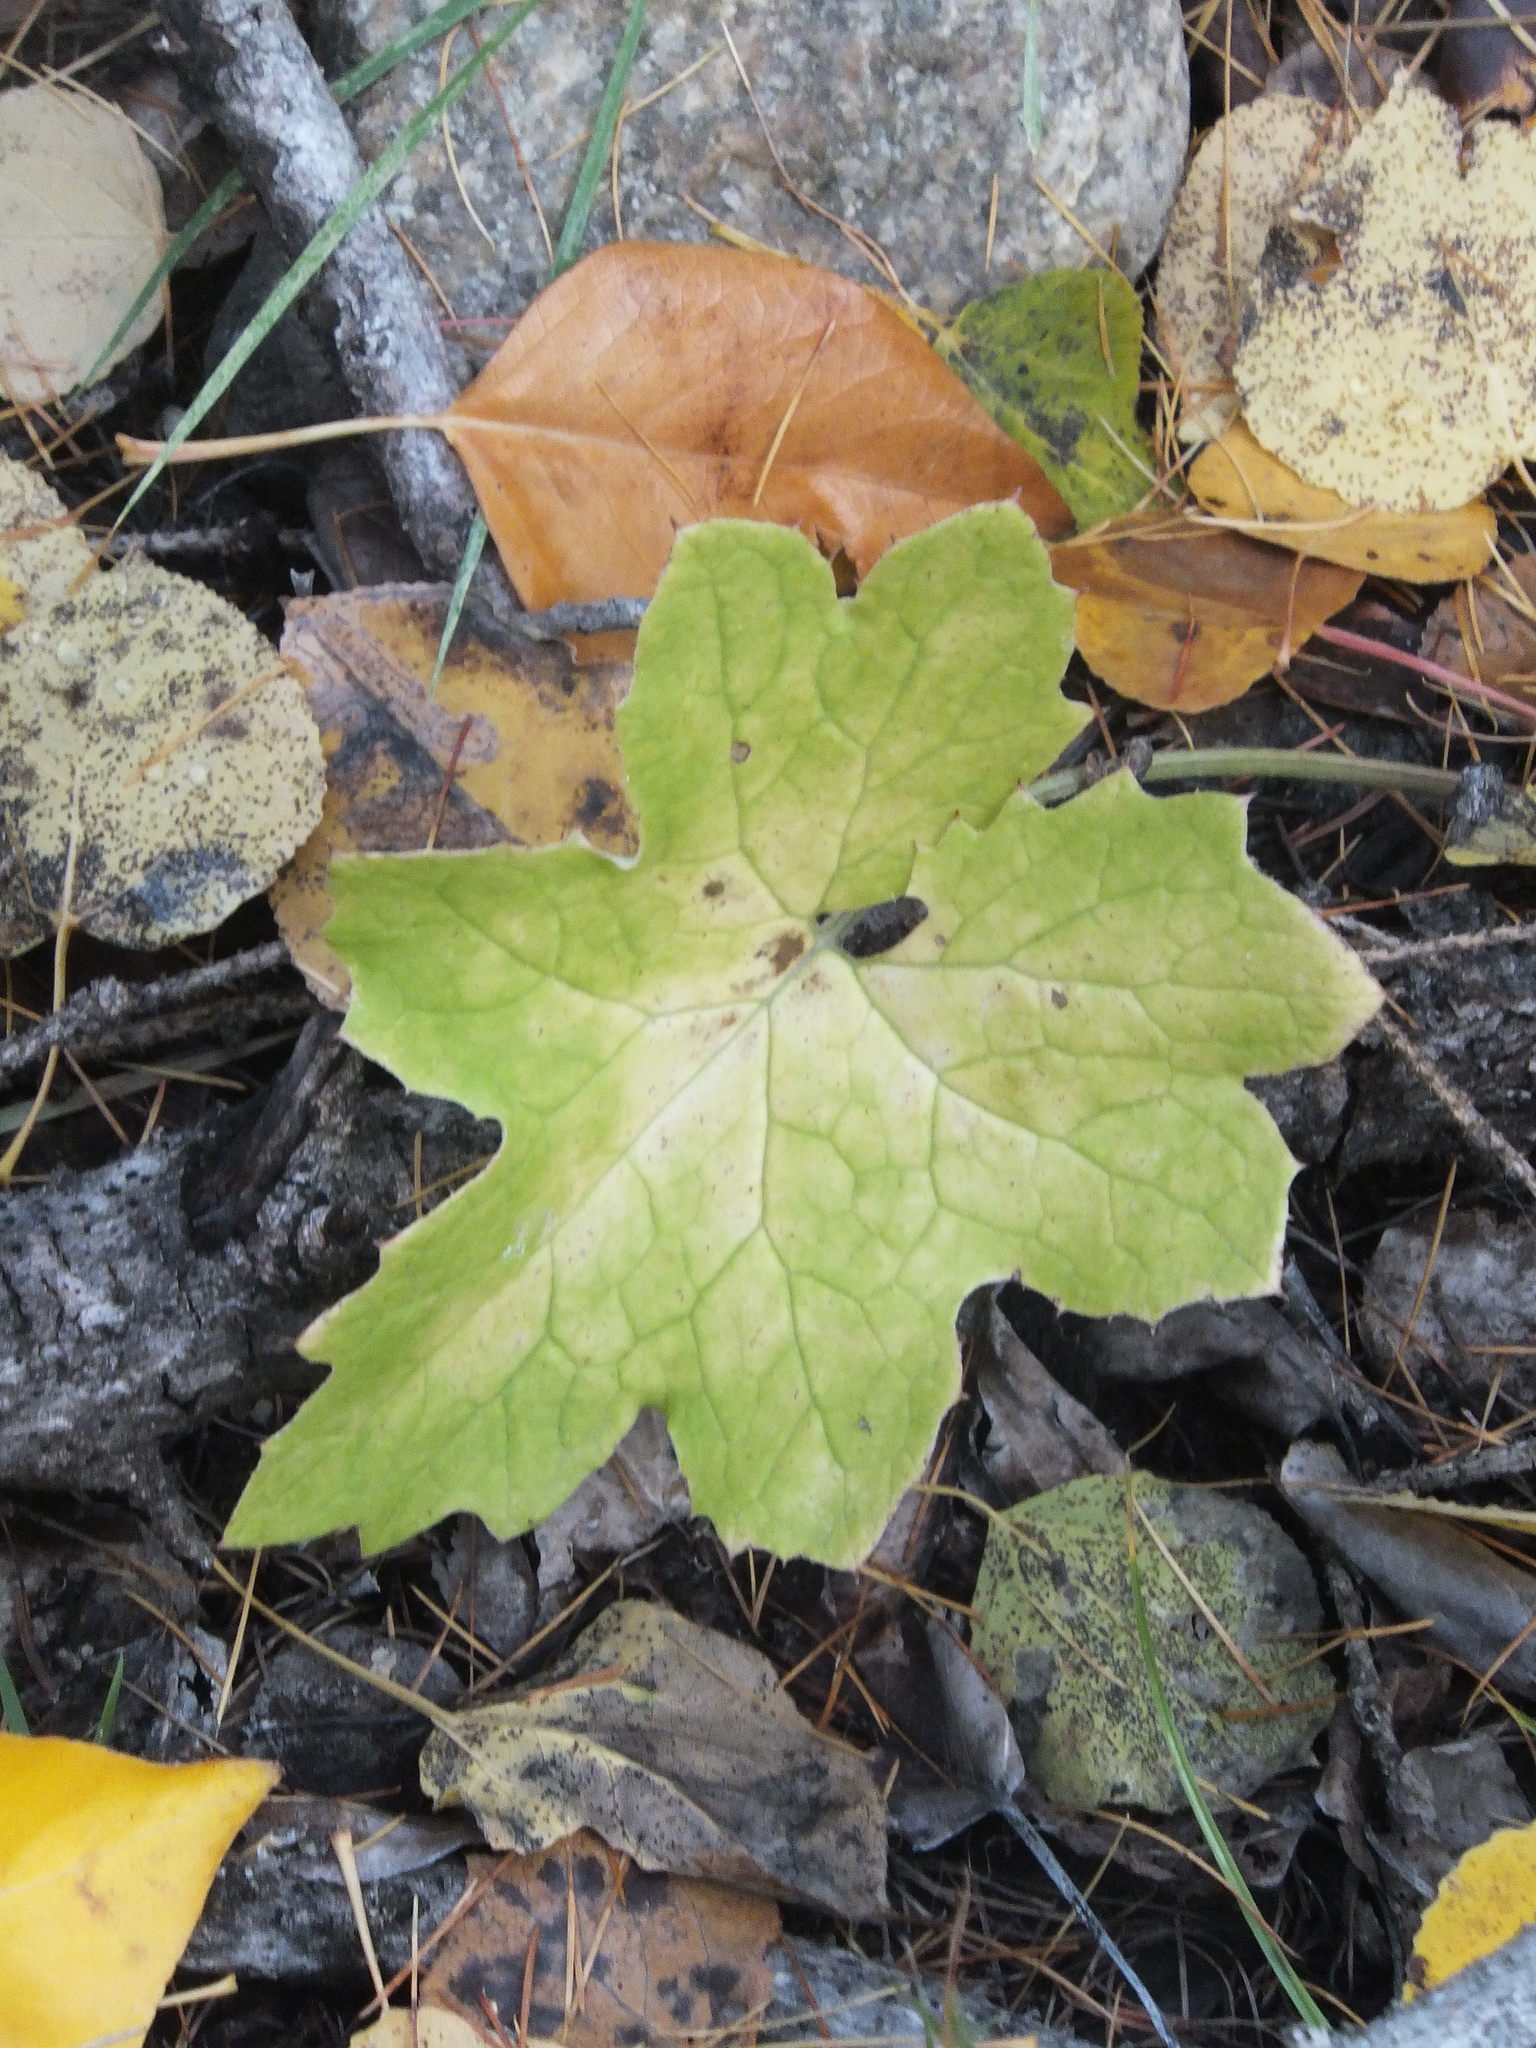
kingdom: Plantae
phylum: Tracheophyta
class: Magnoliopsida
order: Asterales
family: Asteraceae
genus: Petasites
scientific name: Petasites frigidus
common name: Arctic butterbur
